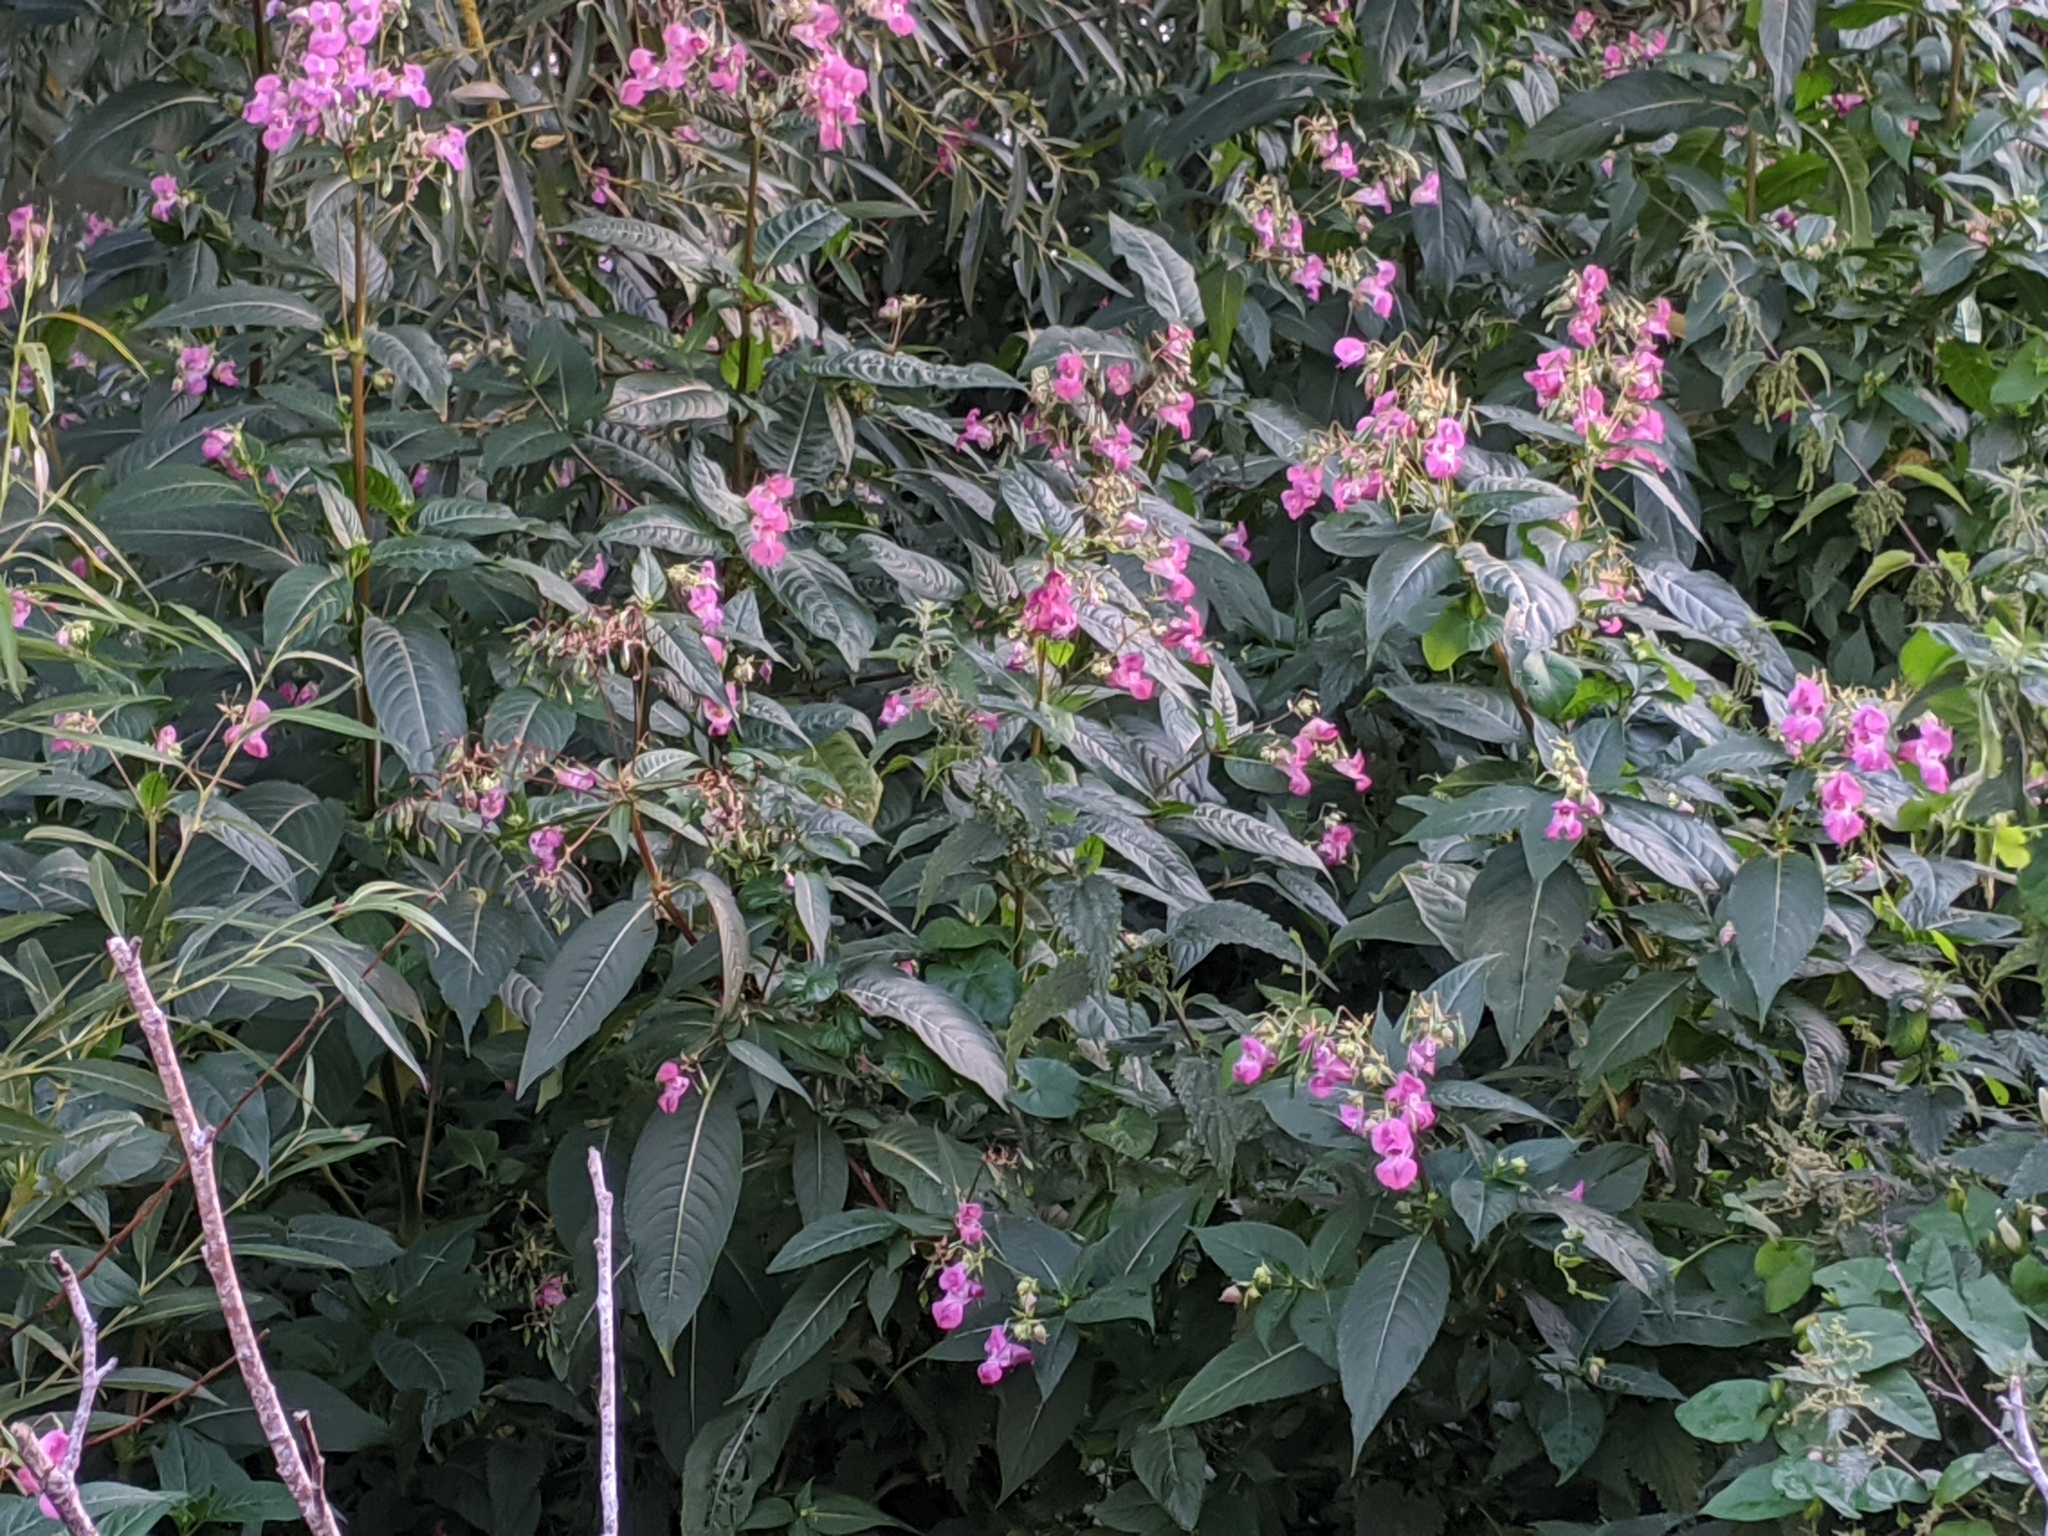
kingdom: Plantae
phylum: Tracheophyta
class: Magnoliopsida
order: Ericales
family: Balsaminaceae
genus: Impatiens
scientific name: Impatiens glandulifera
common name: Himalayan balsam
